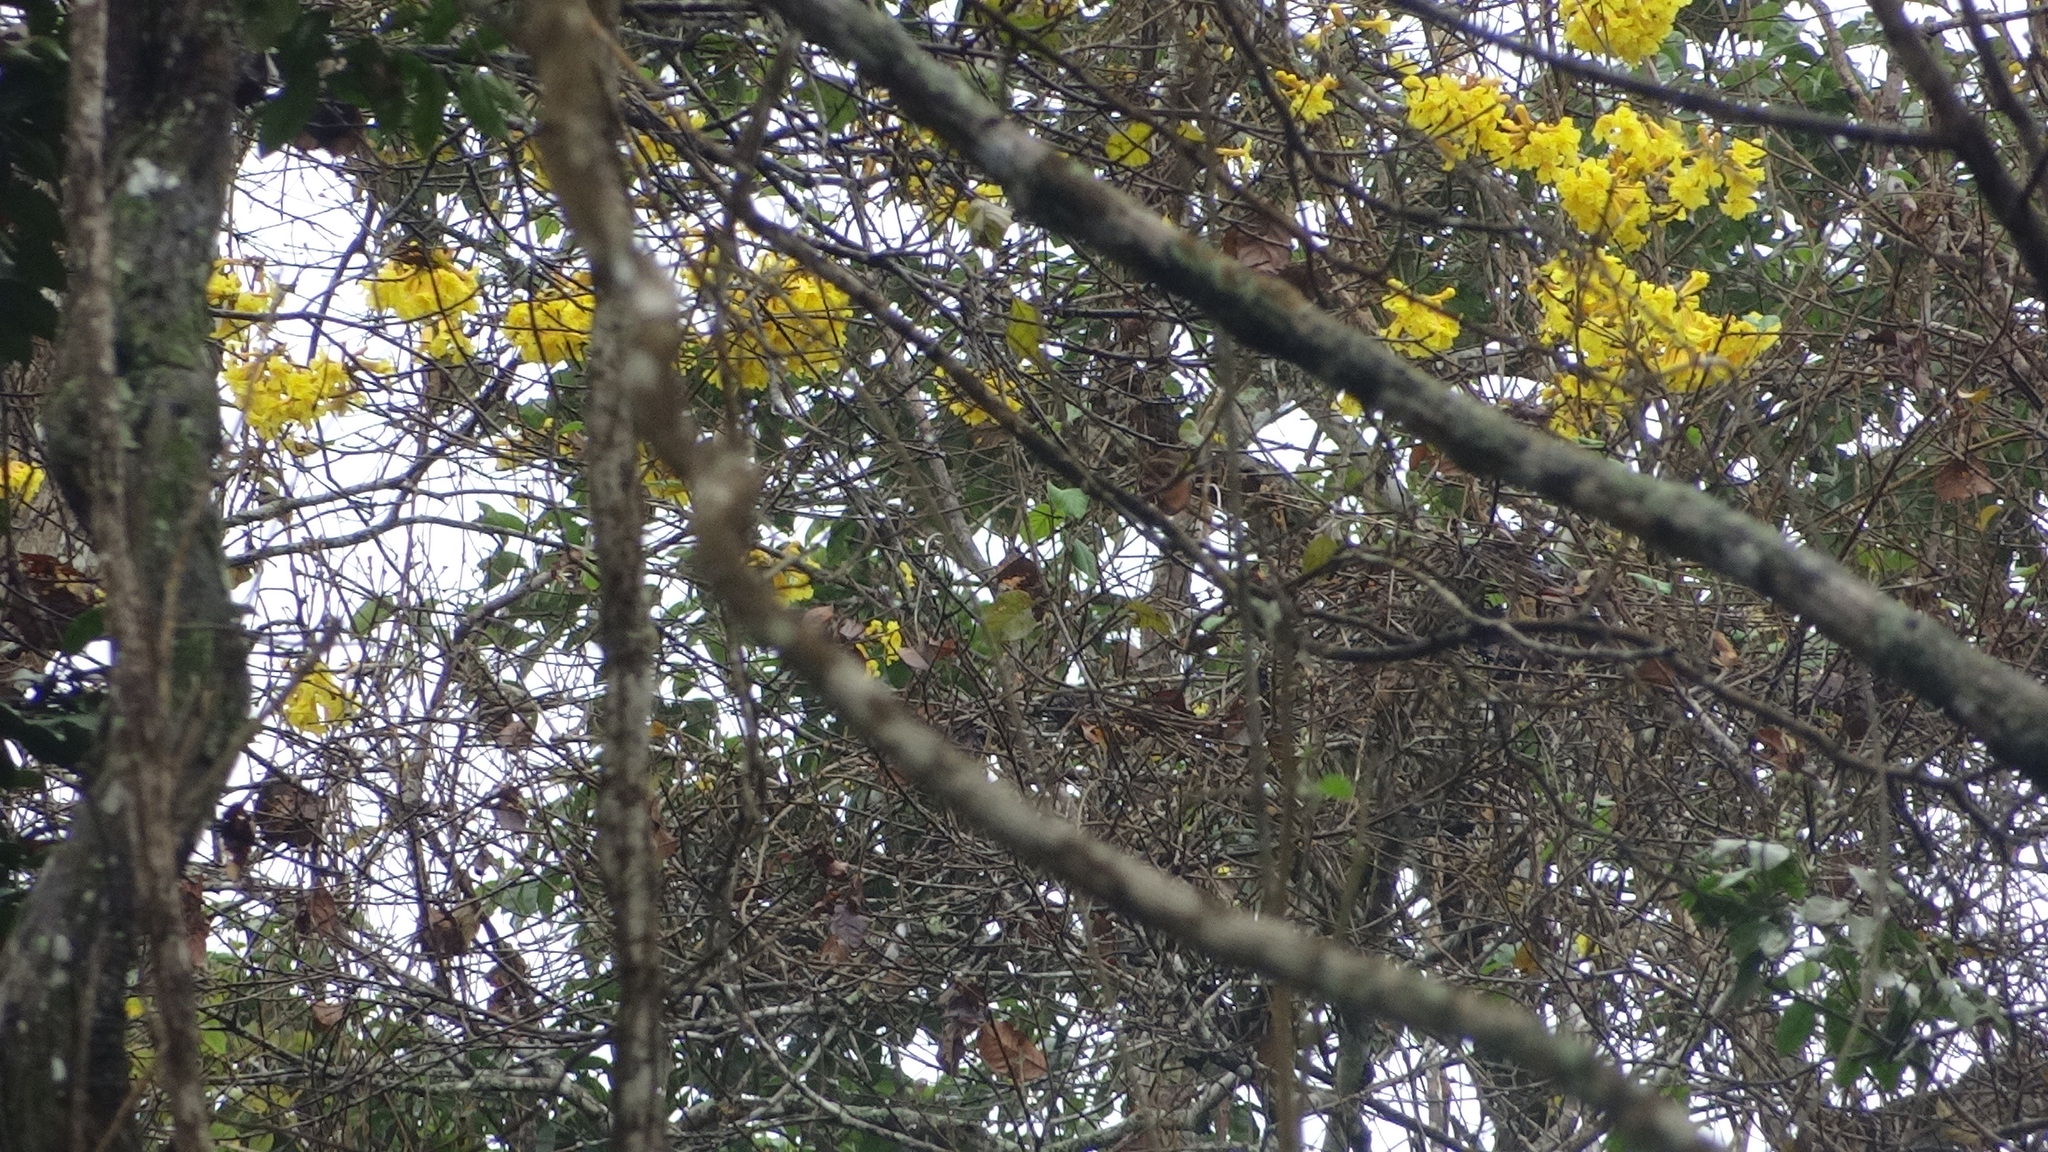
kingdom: Plantae
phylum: Tracheophyta
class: Magnoliopsida
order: Lamiales
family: Bignoniaceae
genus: Handroanthus
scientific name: Handroanthus chrysanthus
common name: Trumpet trees
